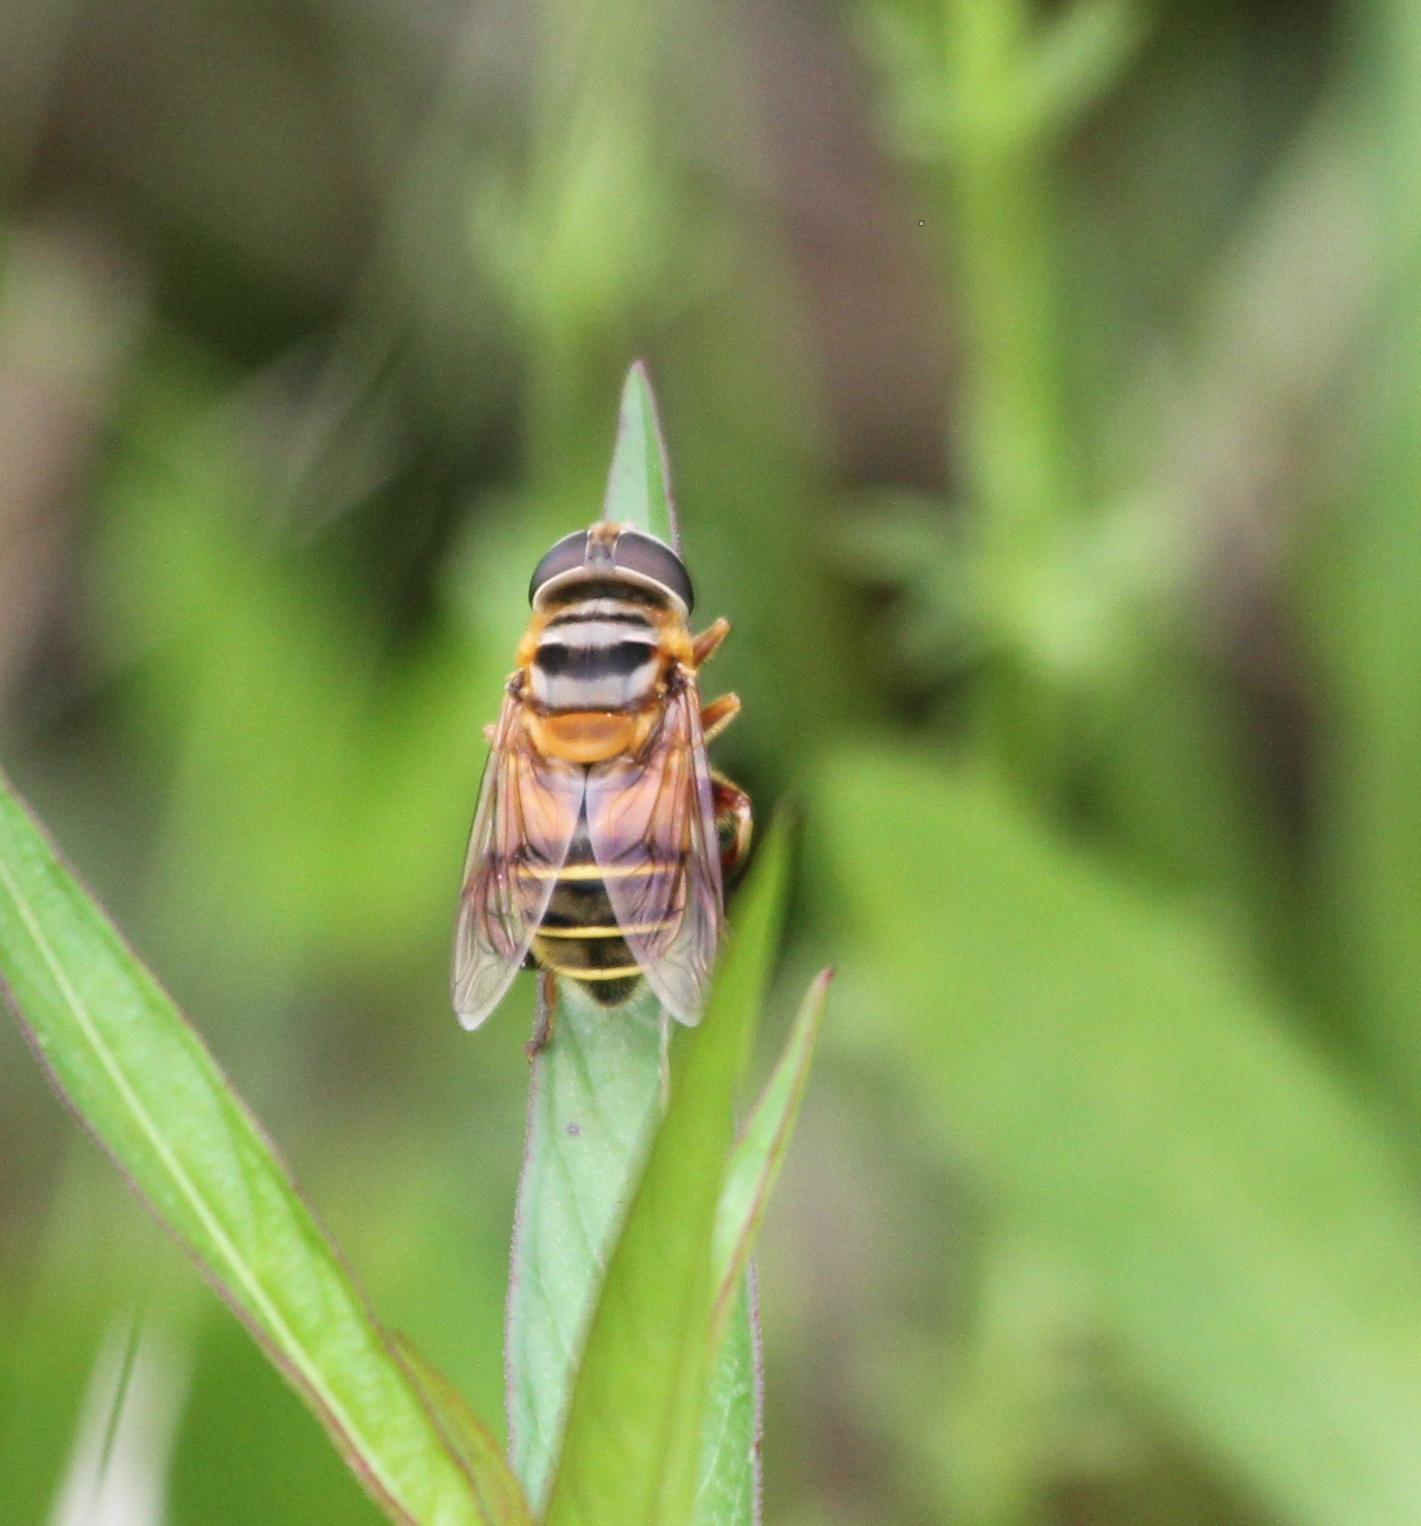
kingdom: Animalia
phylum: Arthropoda
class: Insecta
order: Diptera
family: Syrphidae
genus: Palpada
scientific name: Palpada vinetorum
